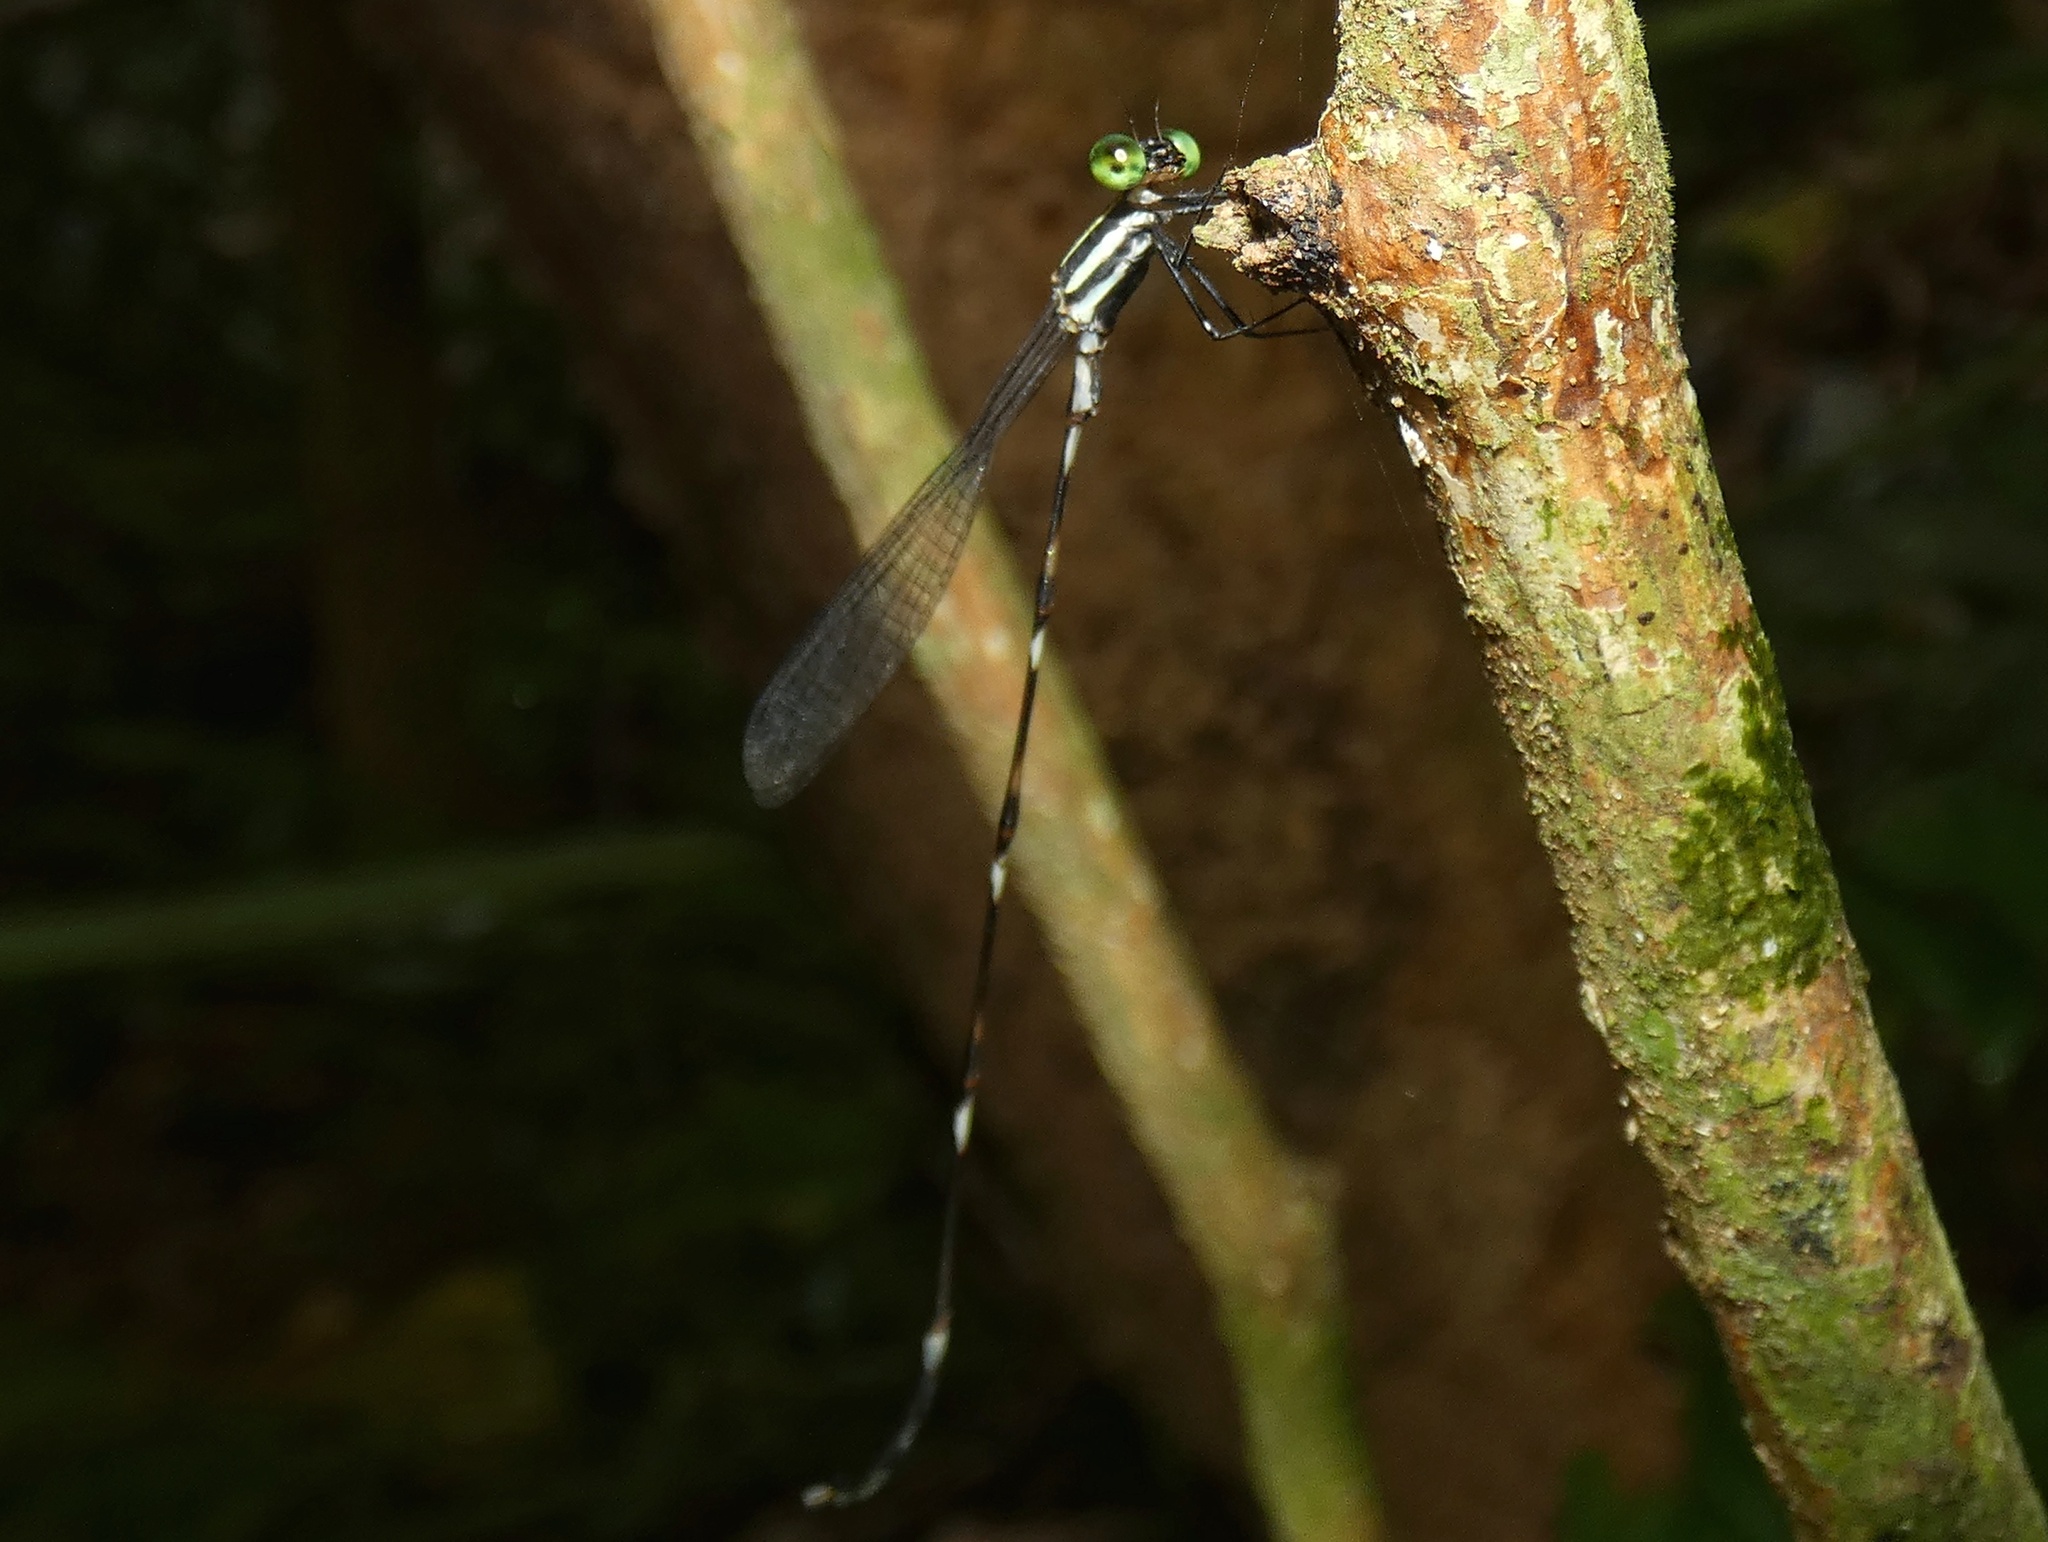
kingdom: Animalia
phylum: Arthropoda
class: Insecta
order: Odonata
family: Perilestidae
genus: Perissolestes
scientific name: Perissolestes magdalenae
